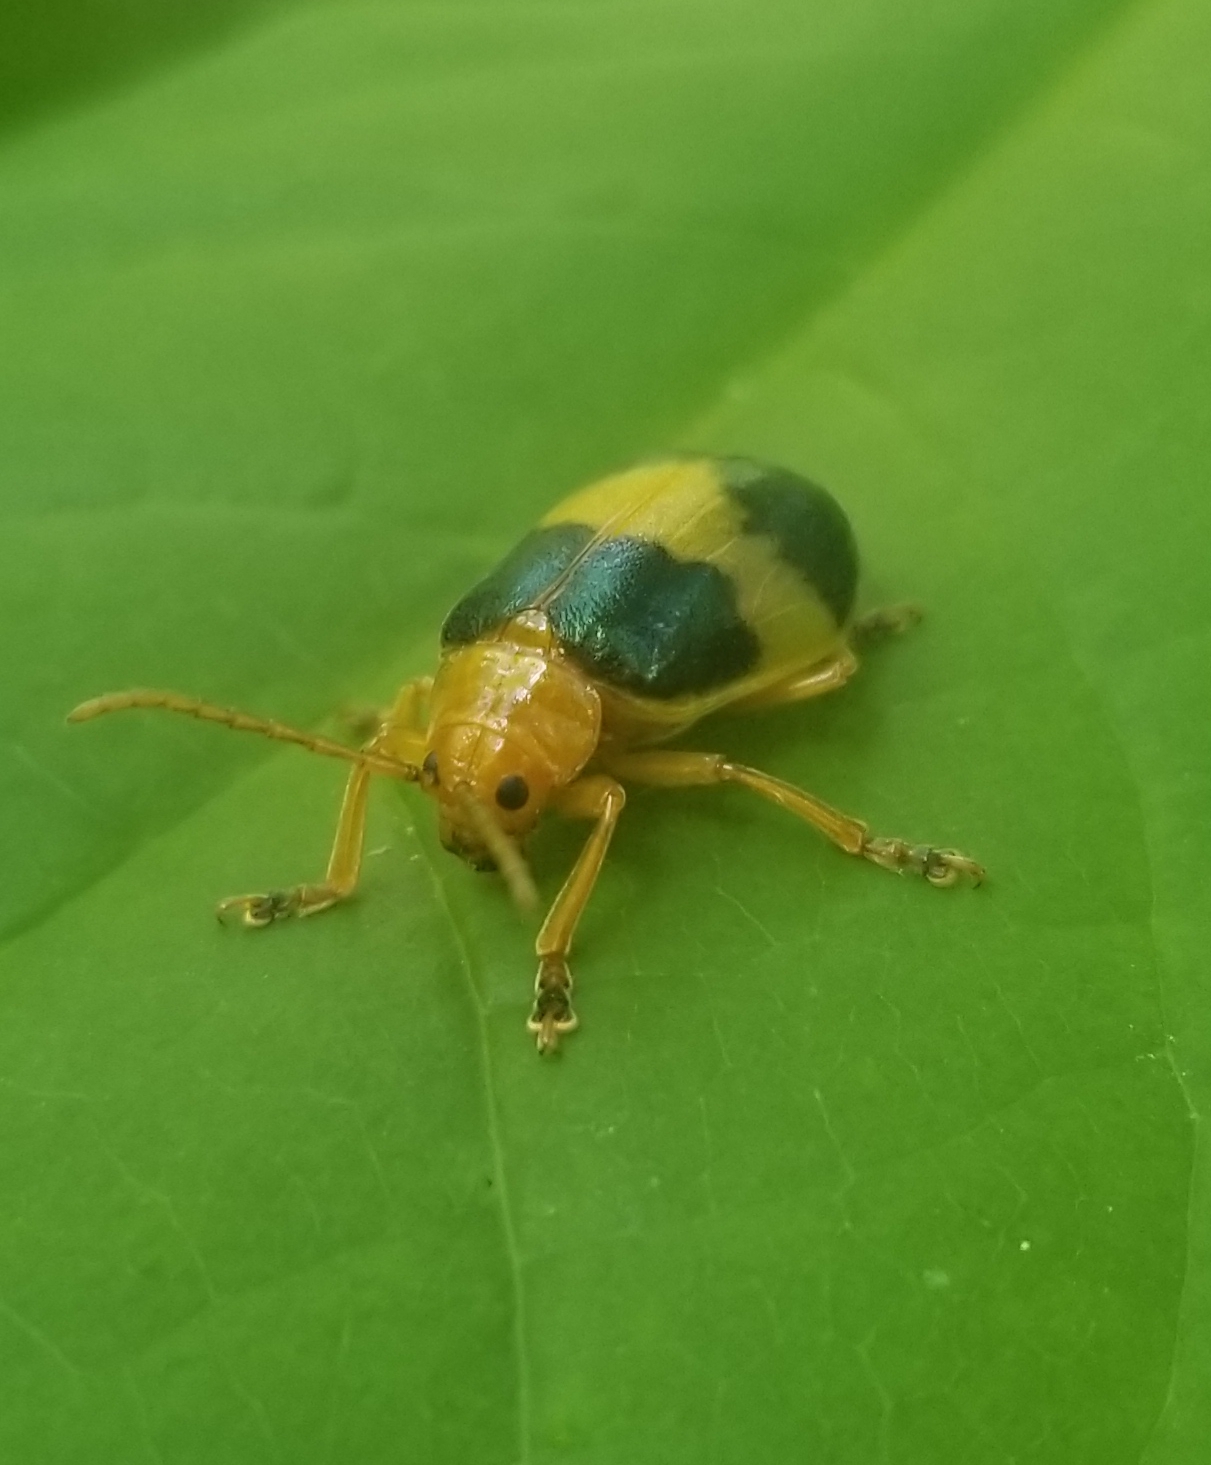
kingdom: Animalia
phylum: Arthropoda
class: Insecta
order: Coleoptera
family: Chrysomelidae
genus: Monocesta
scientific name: Monocesta coryli
